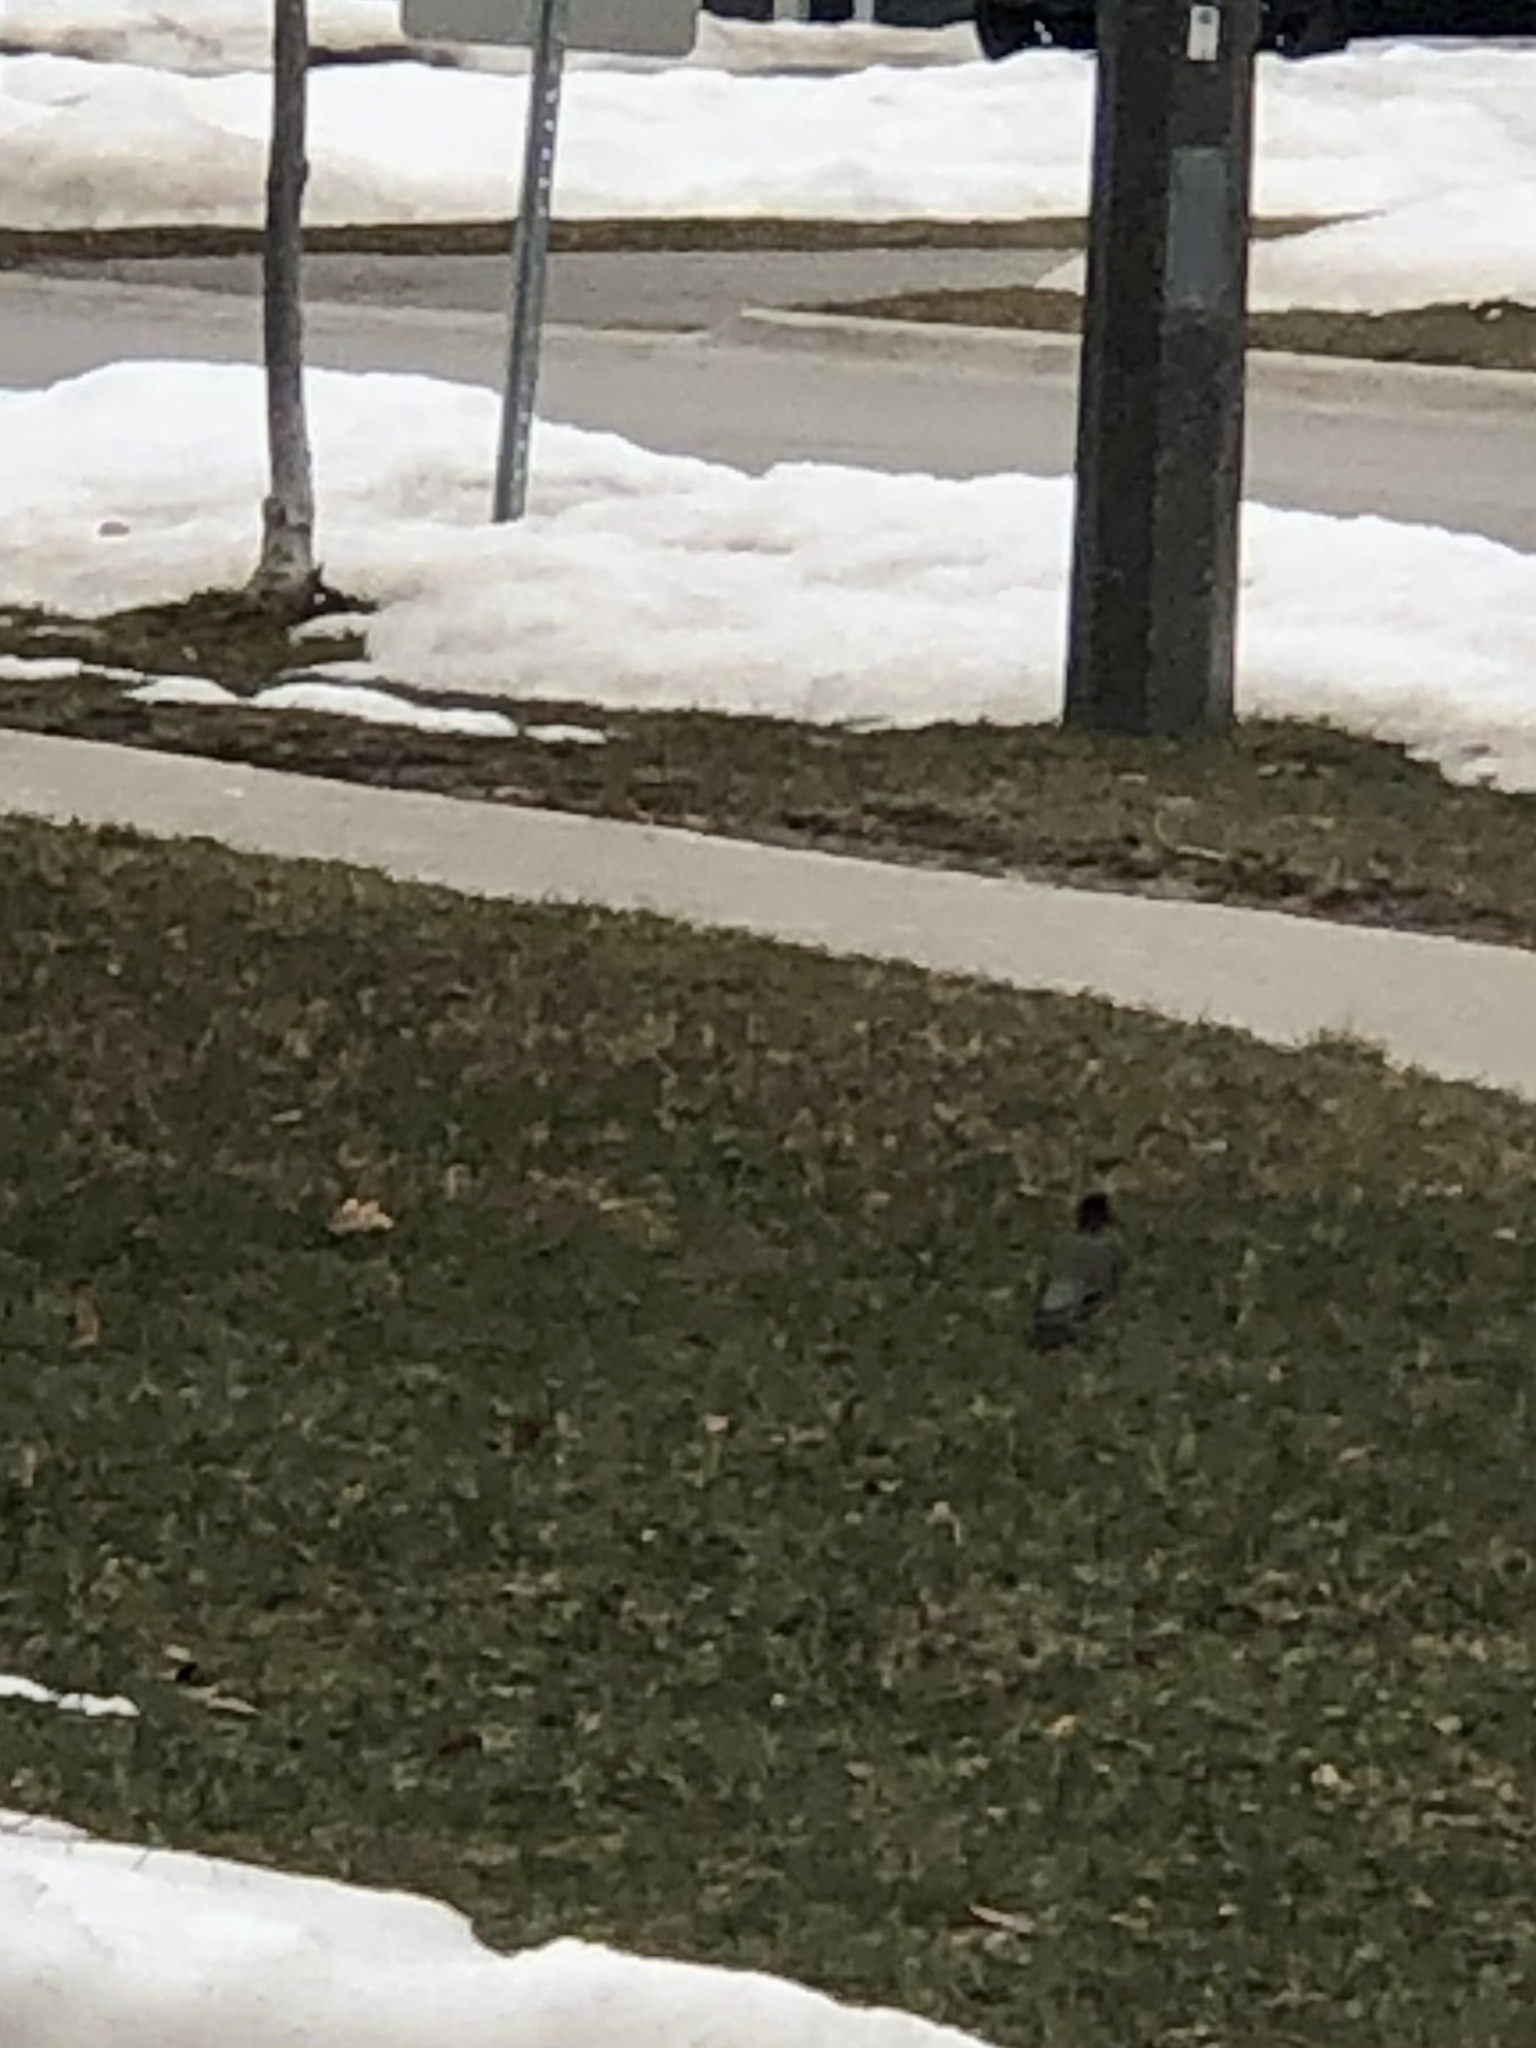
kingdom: Animalia
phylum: Chordata
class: Aves
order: Passeriformes
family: Turdidae
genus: Turdus
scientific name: Turdus migratorius
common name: American robin
